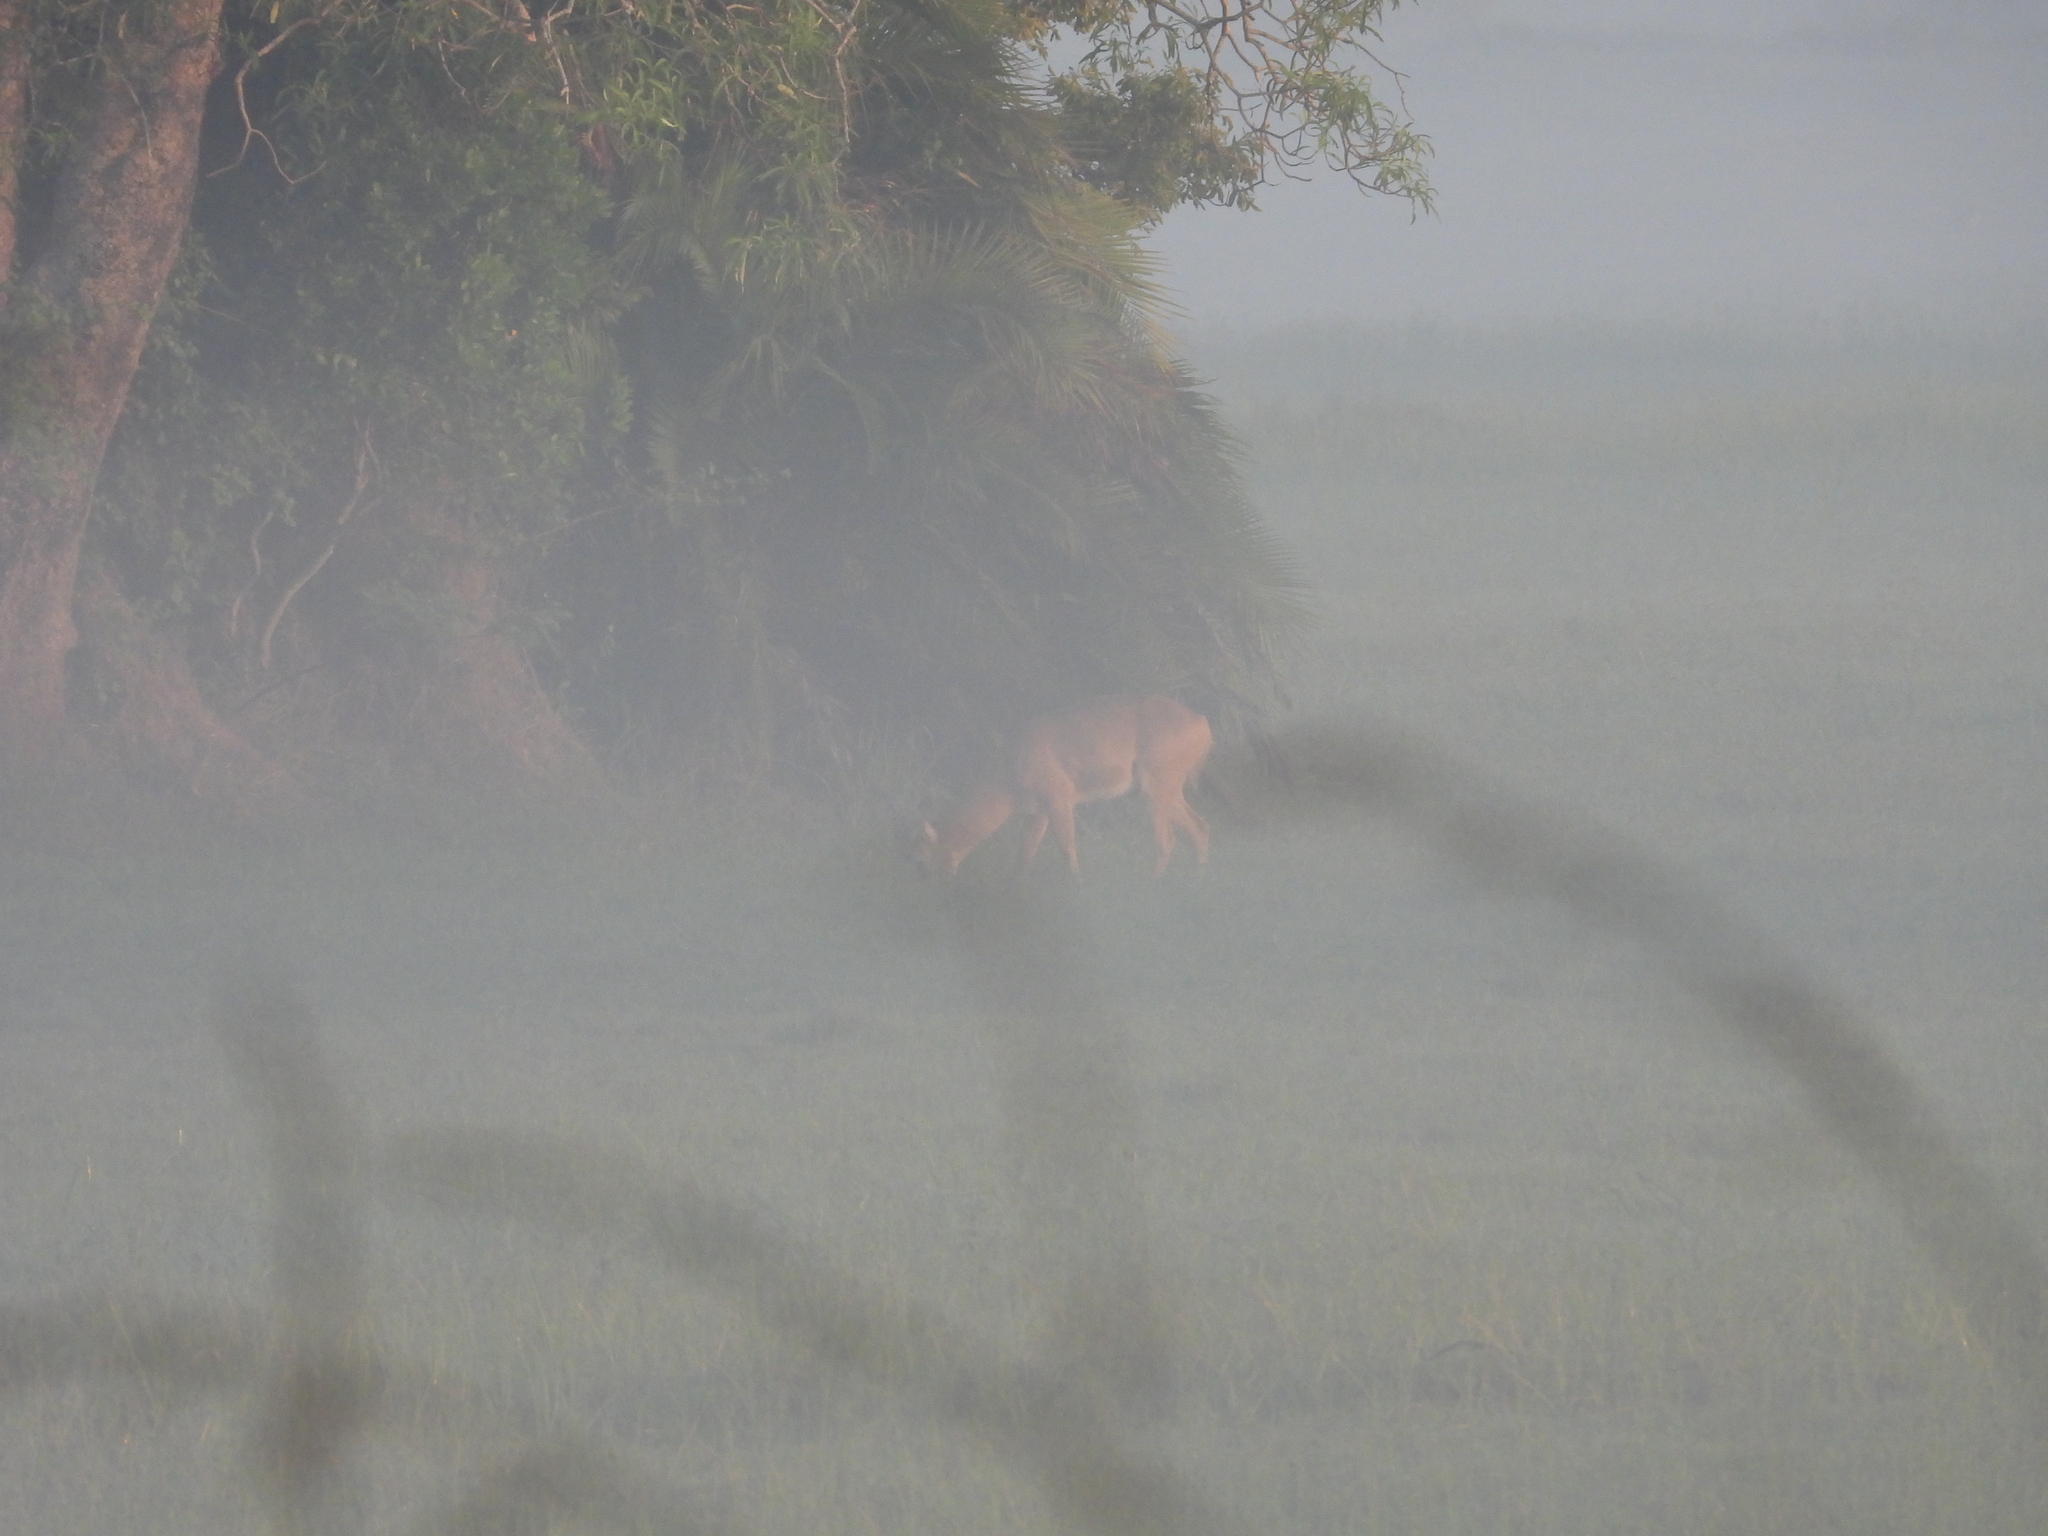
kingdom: Animalia
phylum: Chordata
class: Mammalia
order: Artiodactyla
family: Bovidae
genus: Kobus
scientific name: Kobus vardonii
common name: Puku
